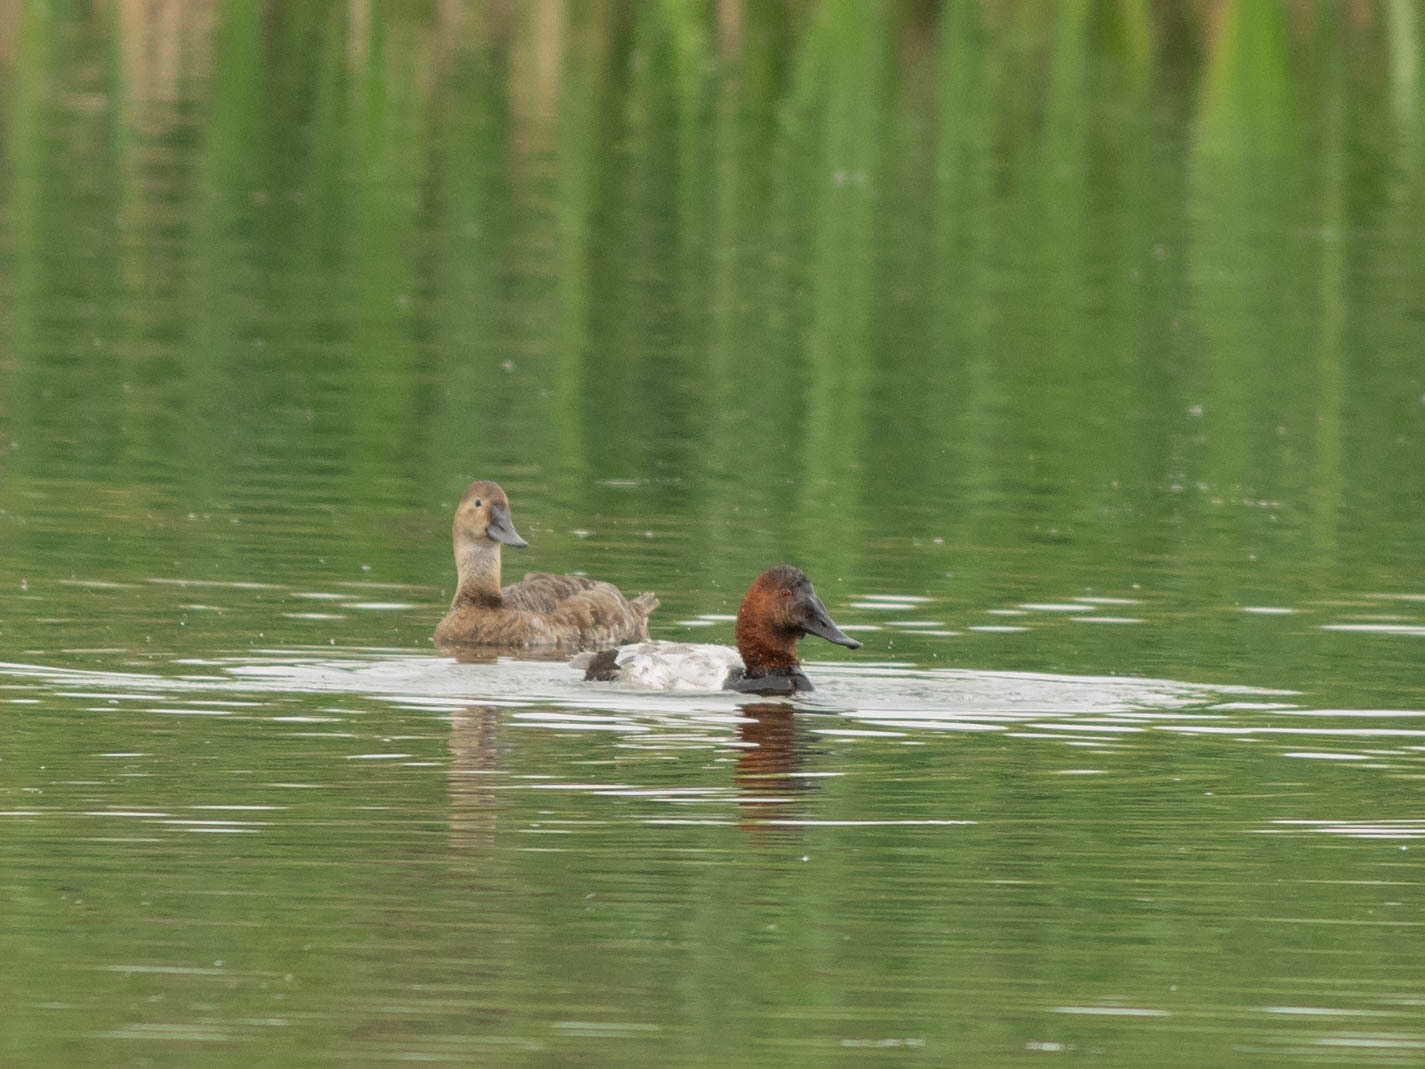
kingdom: Animalia
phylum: Chordata
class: Aves
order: Anseriformes
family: Anatidae
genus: Aythya
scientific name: Aythya valisineria
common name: Canvasback
